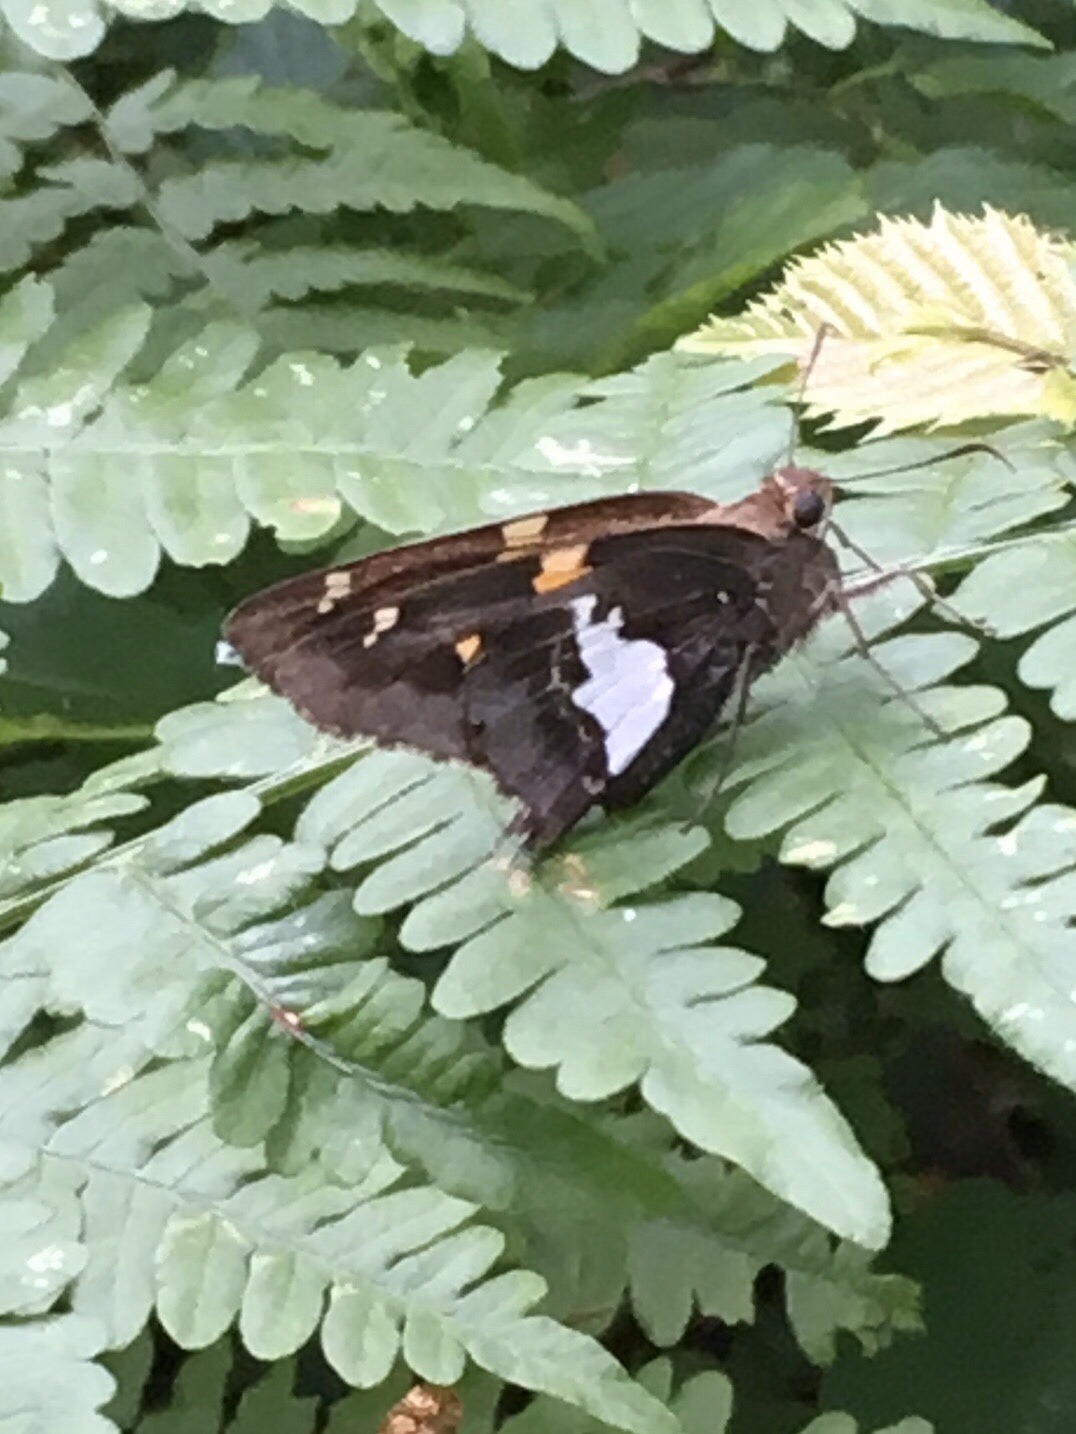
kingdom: Animalia
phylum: Arthropoda
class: Insecta
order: Lepidoptera
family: Hesperiidae
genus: Epargyreus
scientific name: Epargyreus clarus
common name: Silver-spotted skipper
